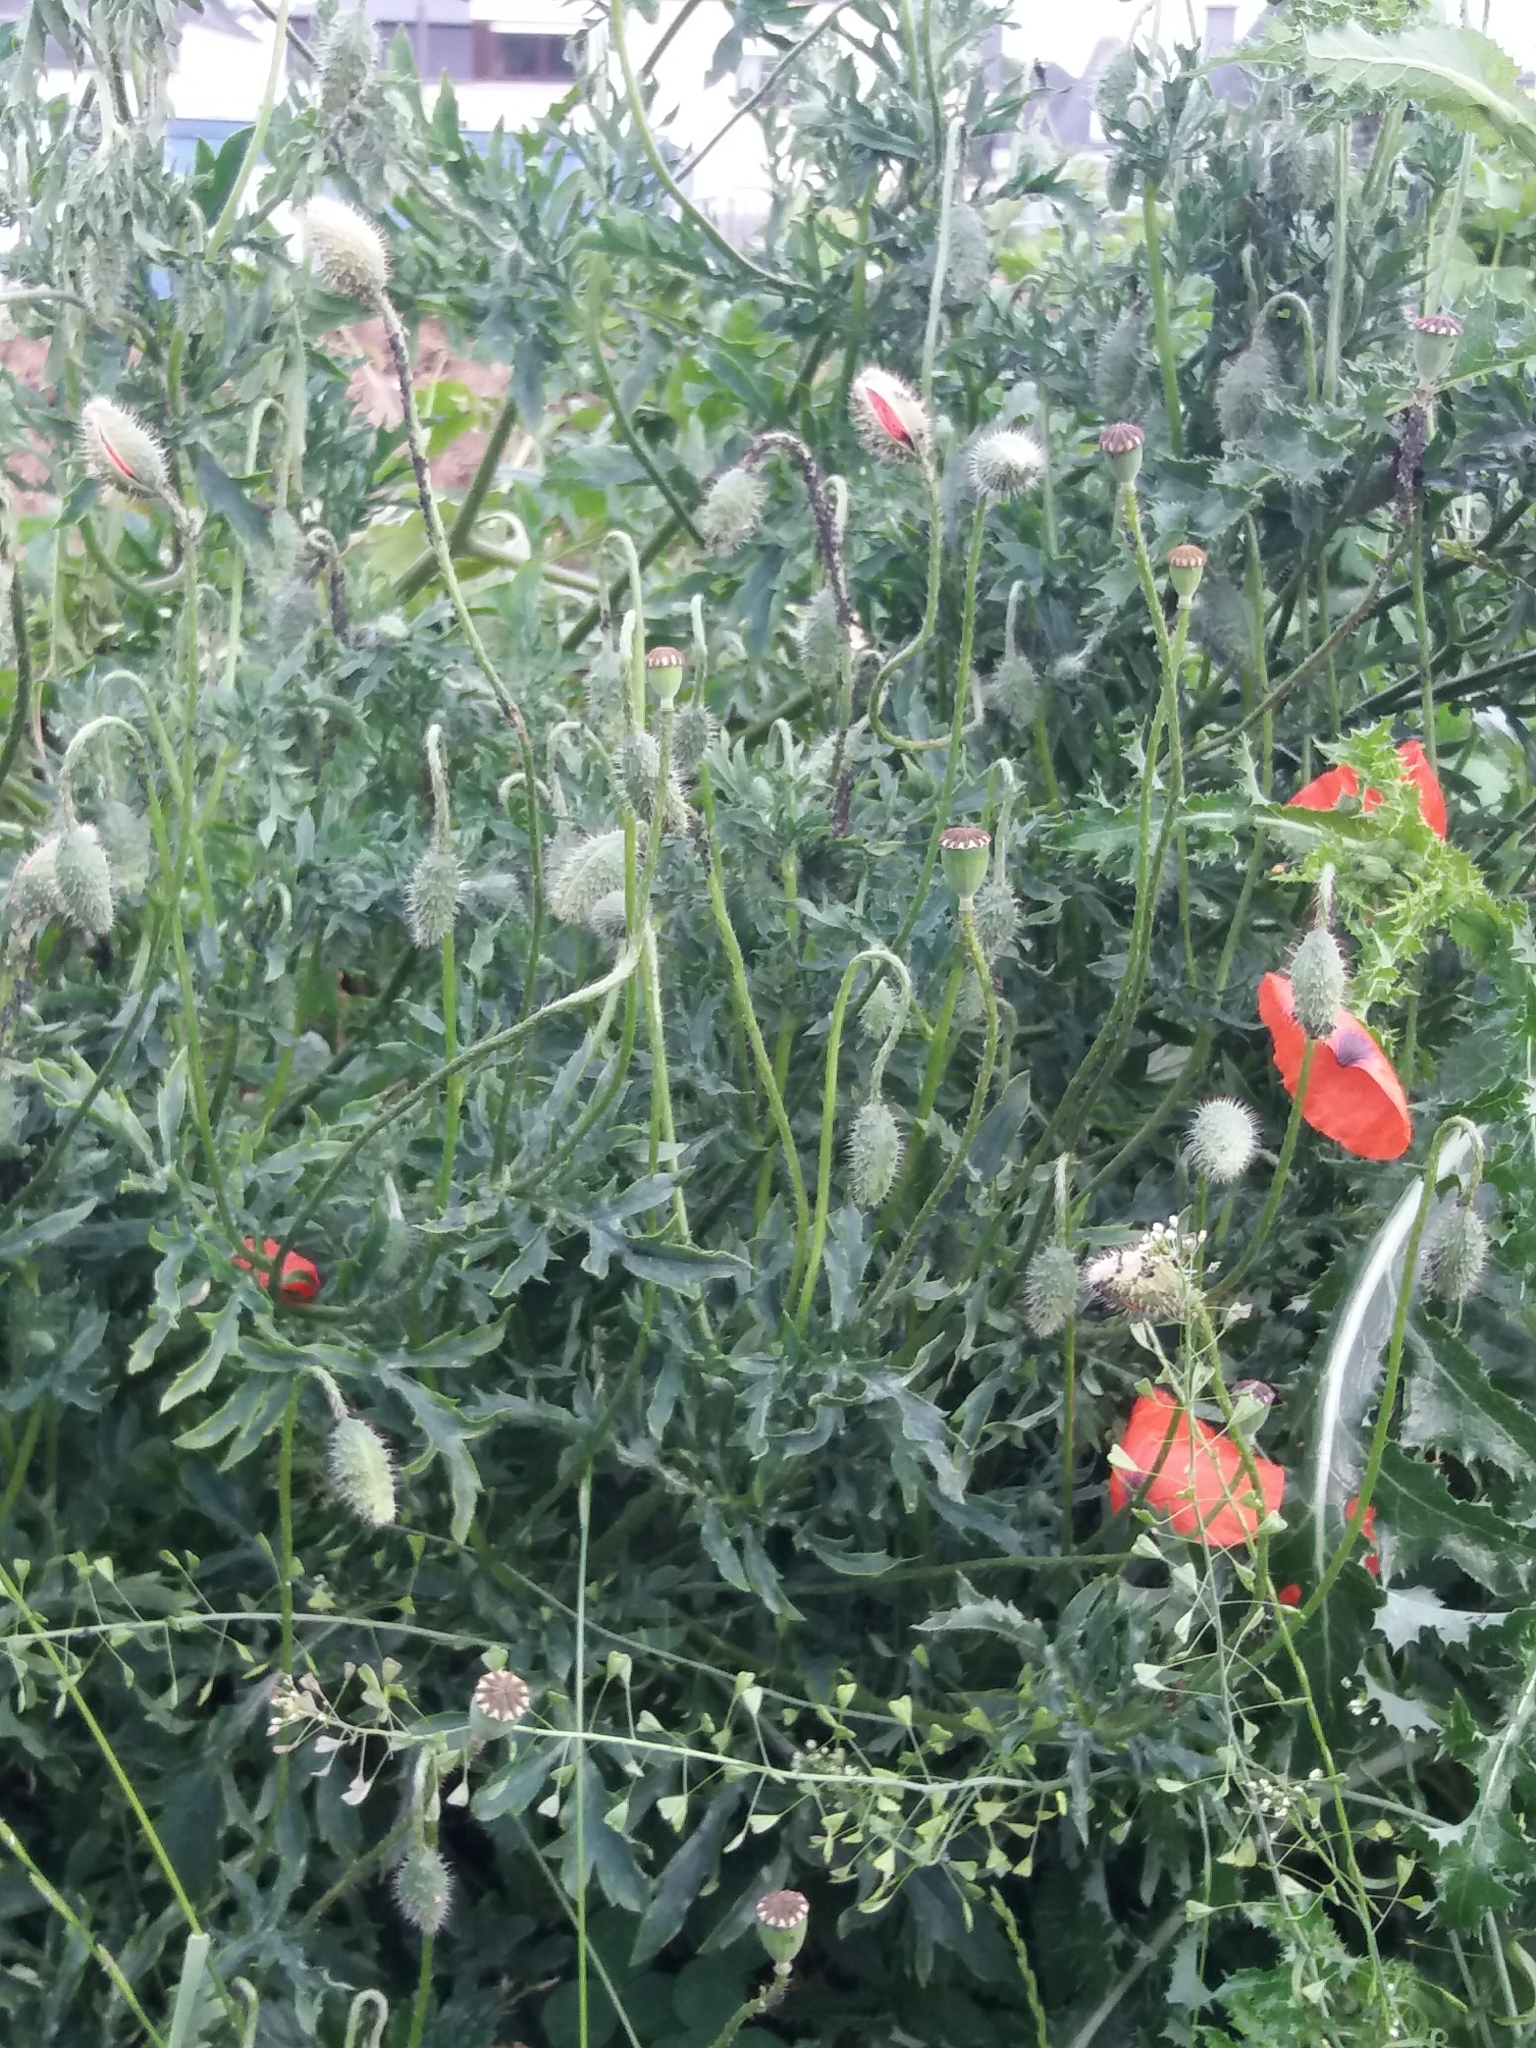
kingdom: Plantae
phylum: Tracheophyta
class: Magnoliopsida
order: Ranunculales
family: Papaveraceae
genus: Papaver
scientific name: Papaver rhoeas
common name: Corn poppy
